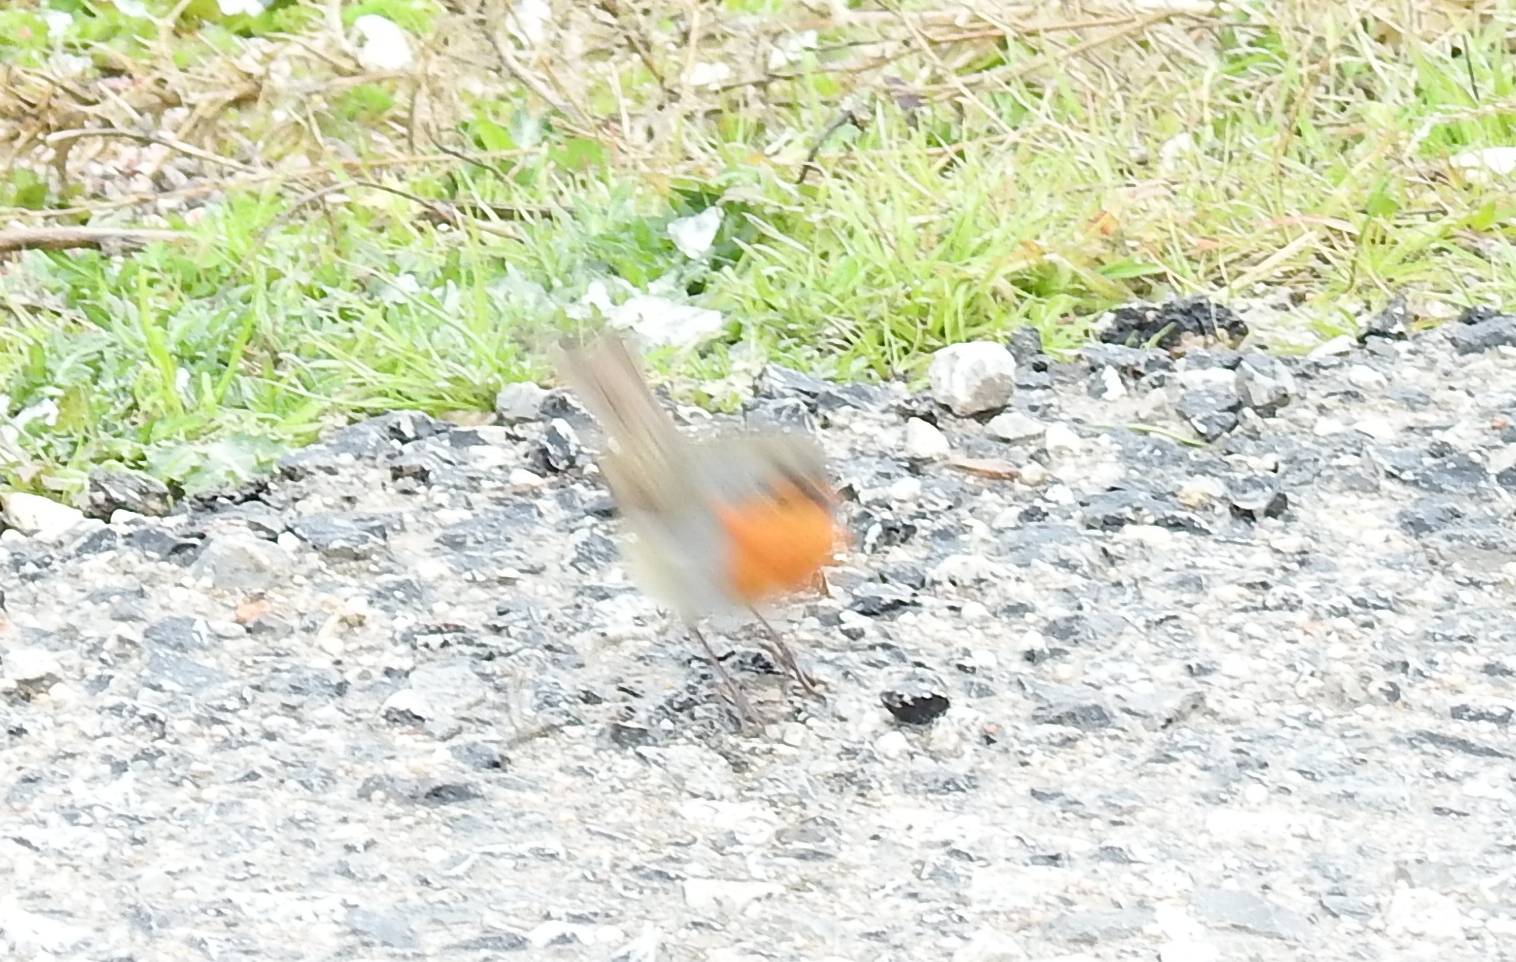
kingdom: Animalia
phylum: Chordata
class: Aves
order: Passeriformes
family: Muscicapidae
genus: Erithacus
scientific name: Erithacus rubecula
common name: European robin
